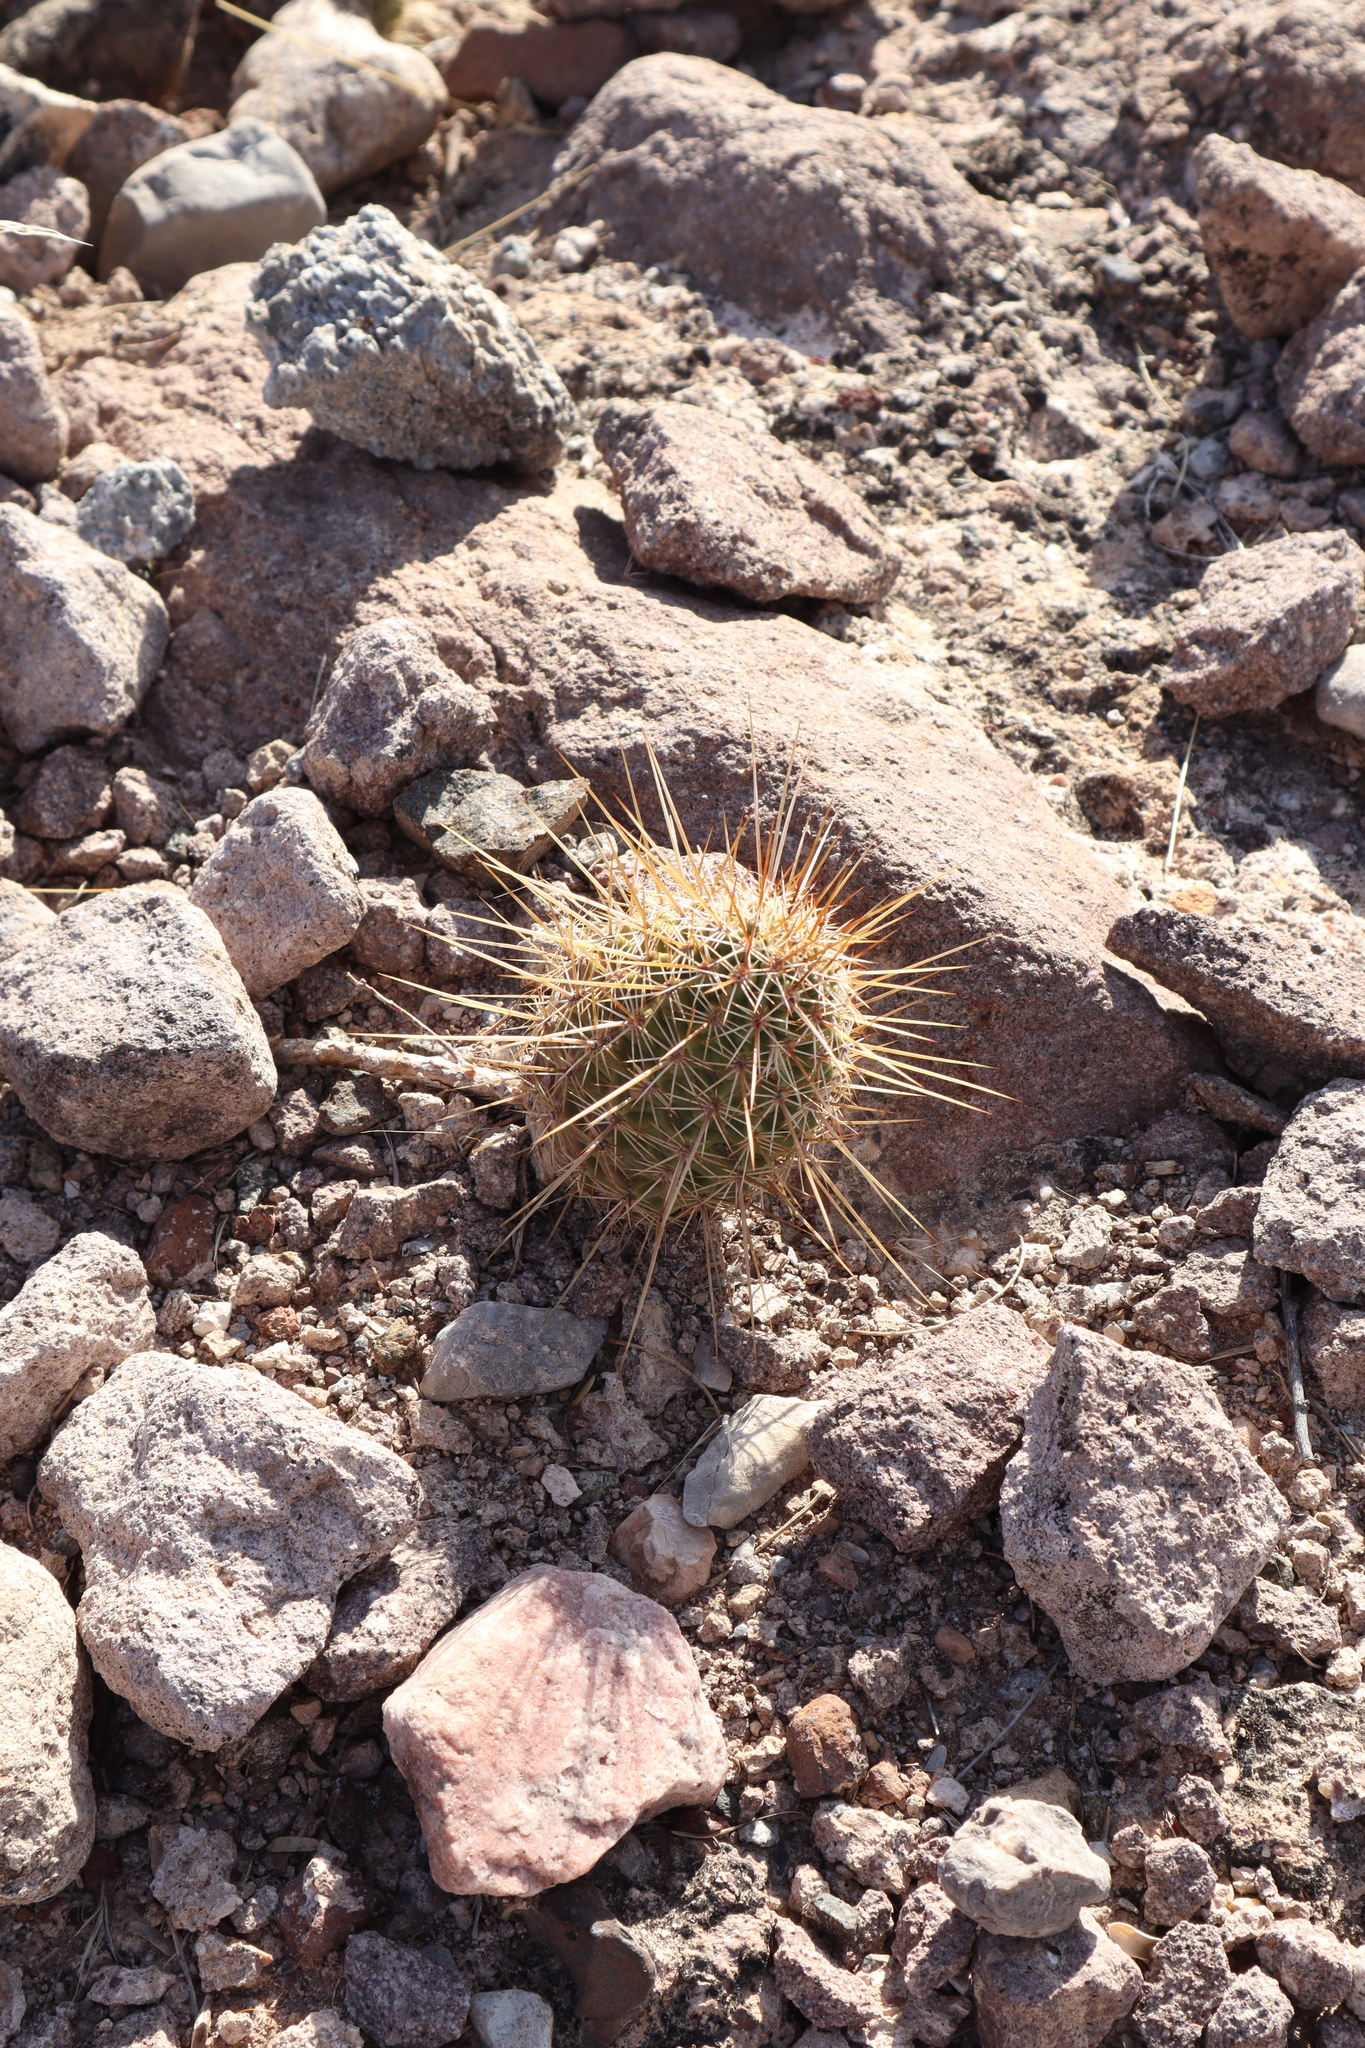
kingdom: Plantae
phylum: Tracheophyta
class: Magnoliopsida
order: Caryophyllales
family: Cactaceae
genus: Echinocereus
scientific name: Echinocereus fasciculatus
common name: Bundle hedgehog
